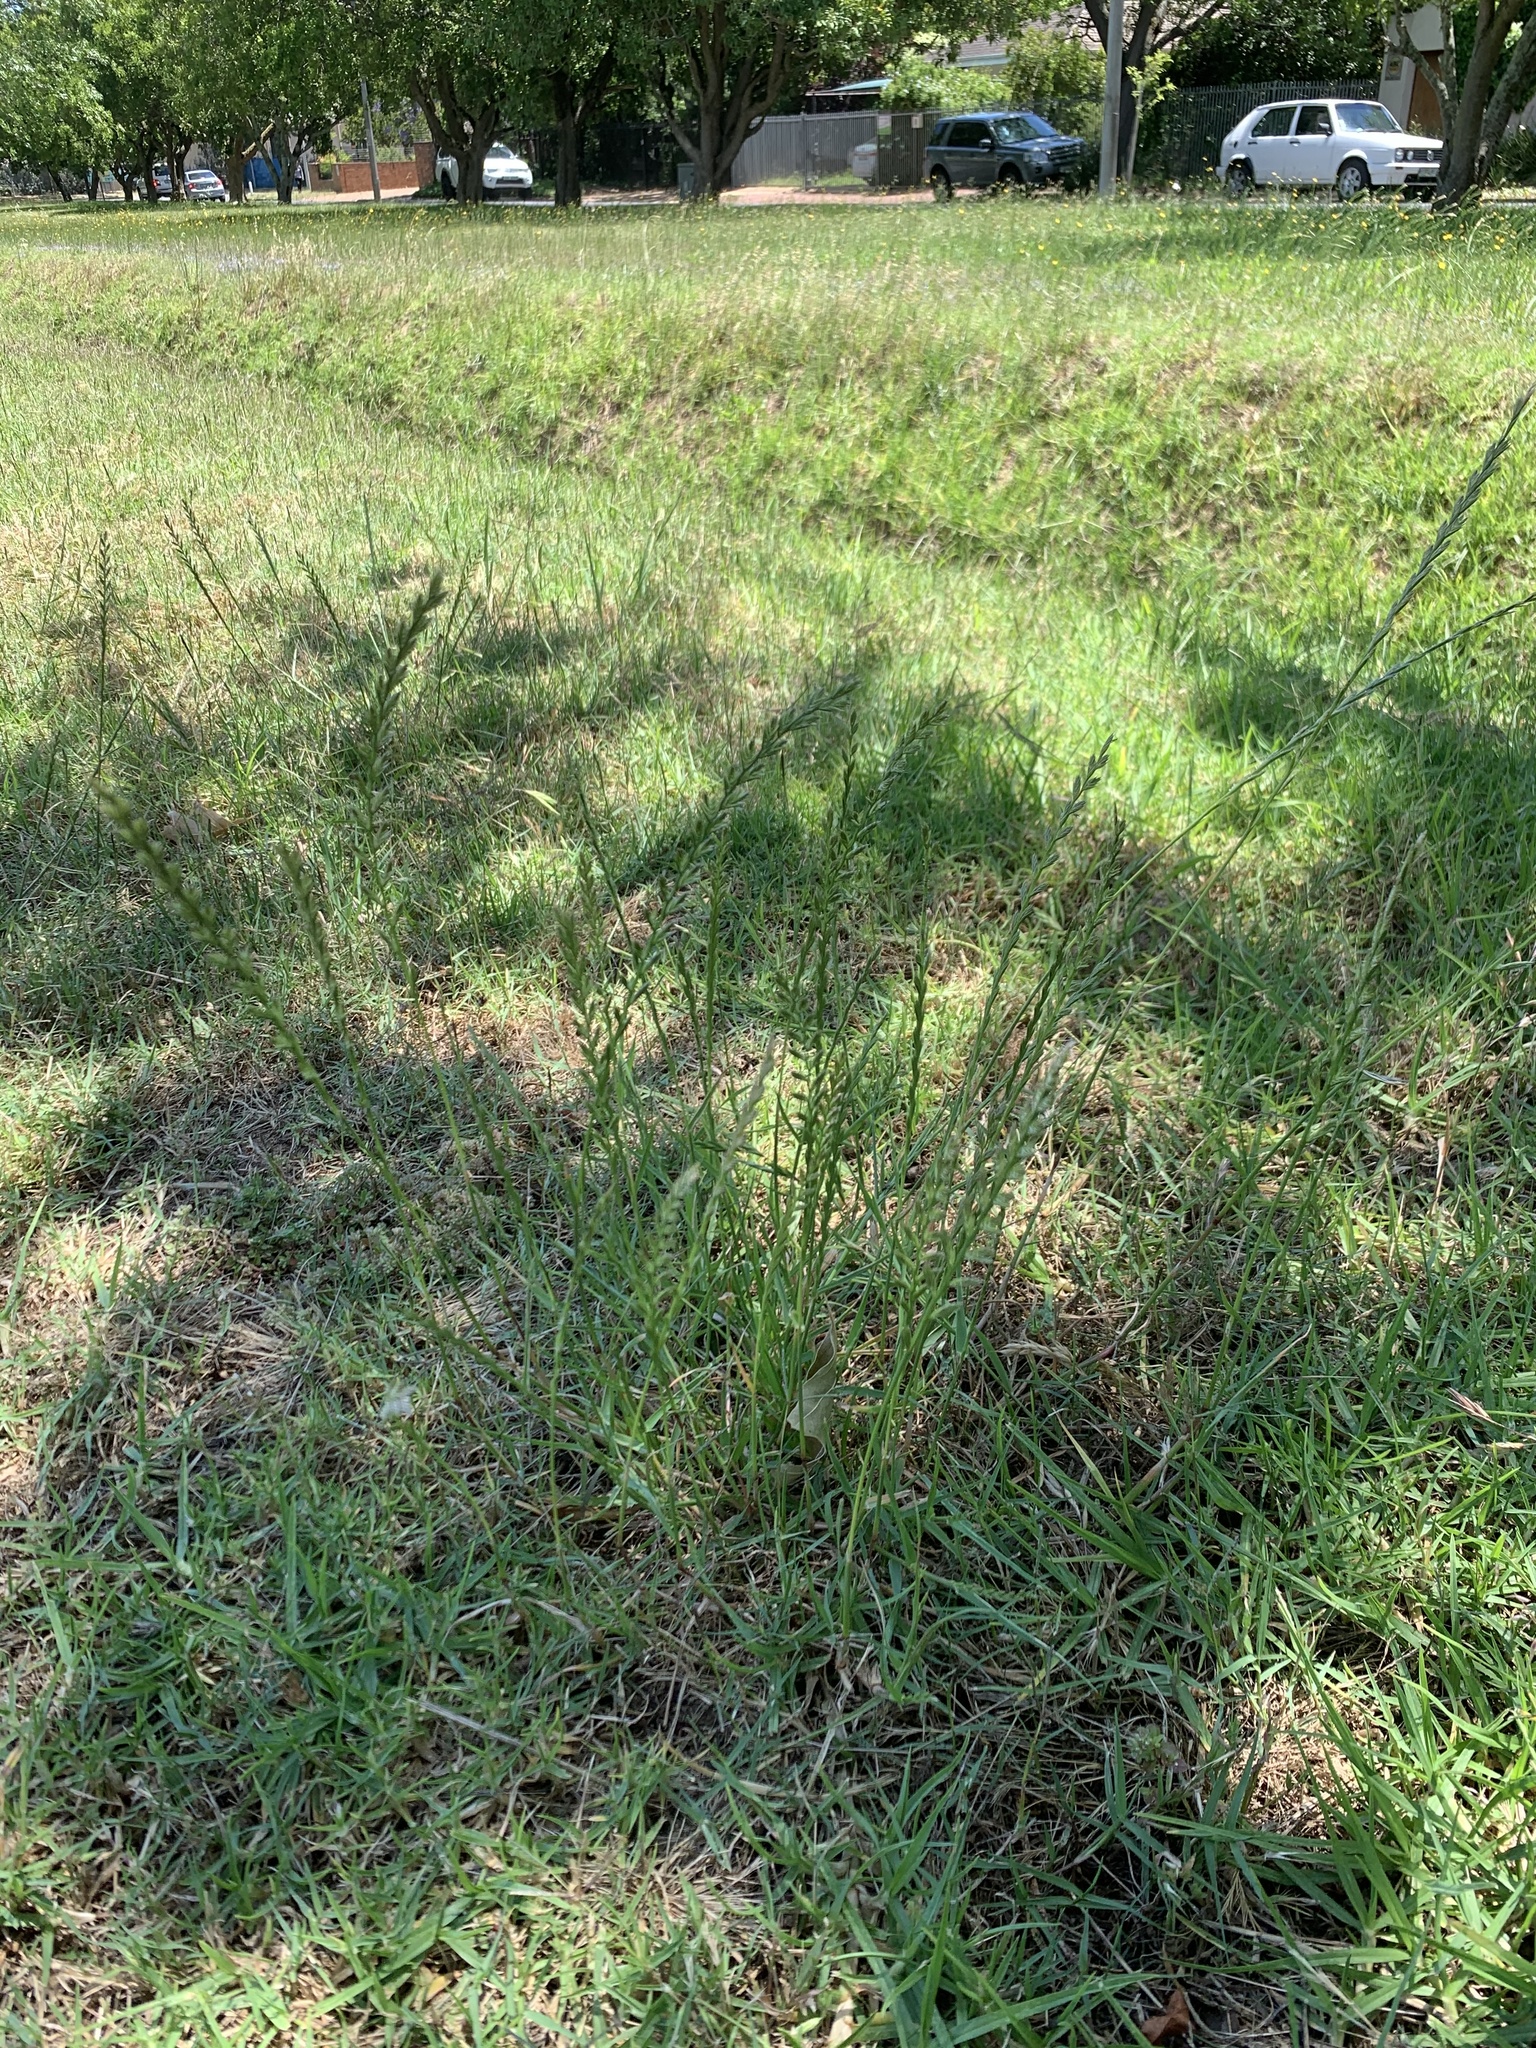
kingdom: Plantae
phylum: Tracheophyta
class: Liliopsida
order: Poales
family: Poaceae
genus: Lolium
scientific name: Lolium multiflorum
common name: Annual ryegrass
